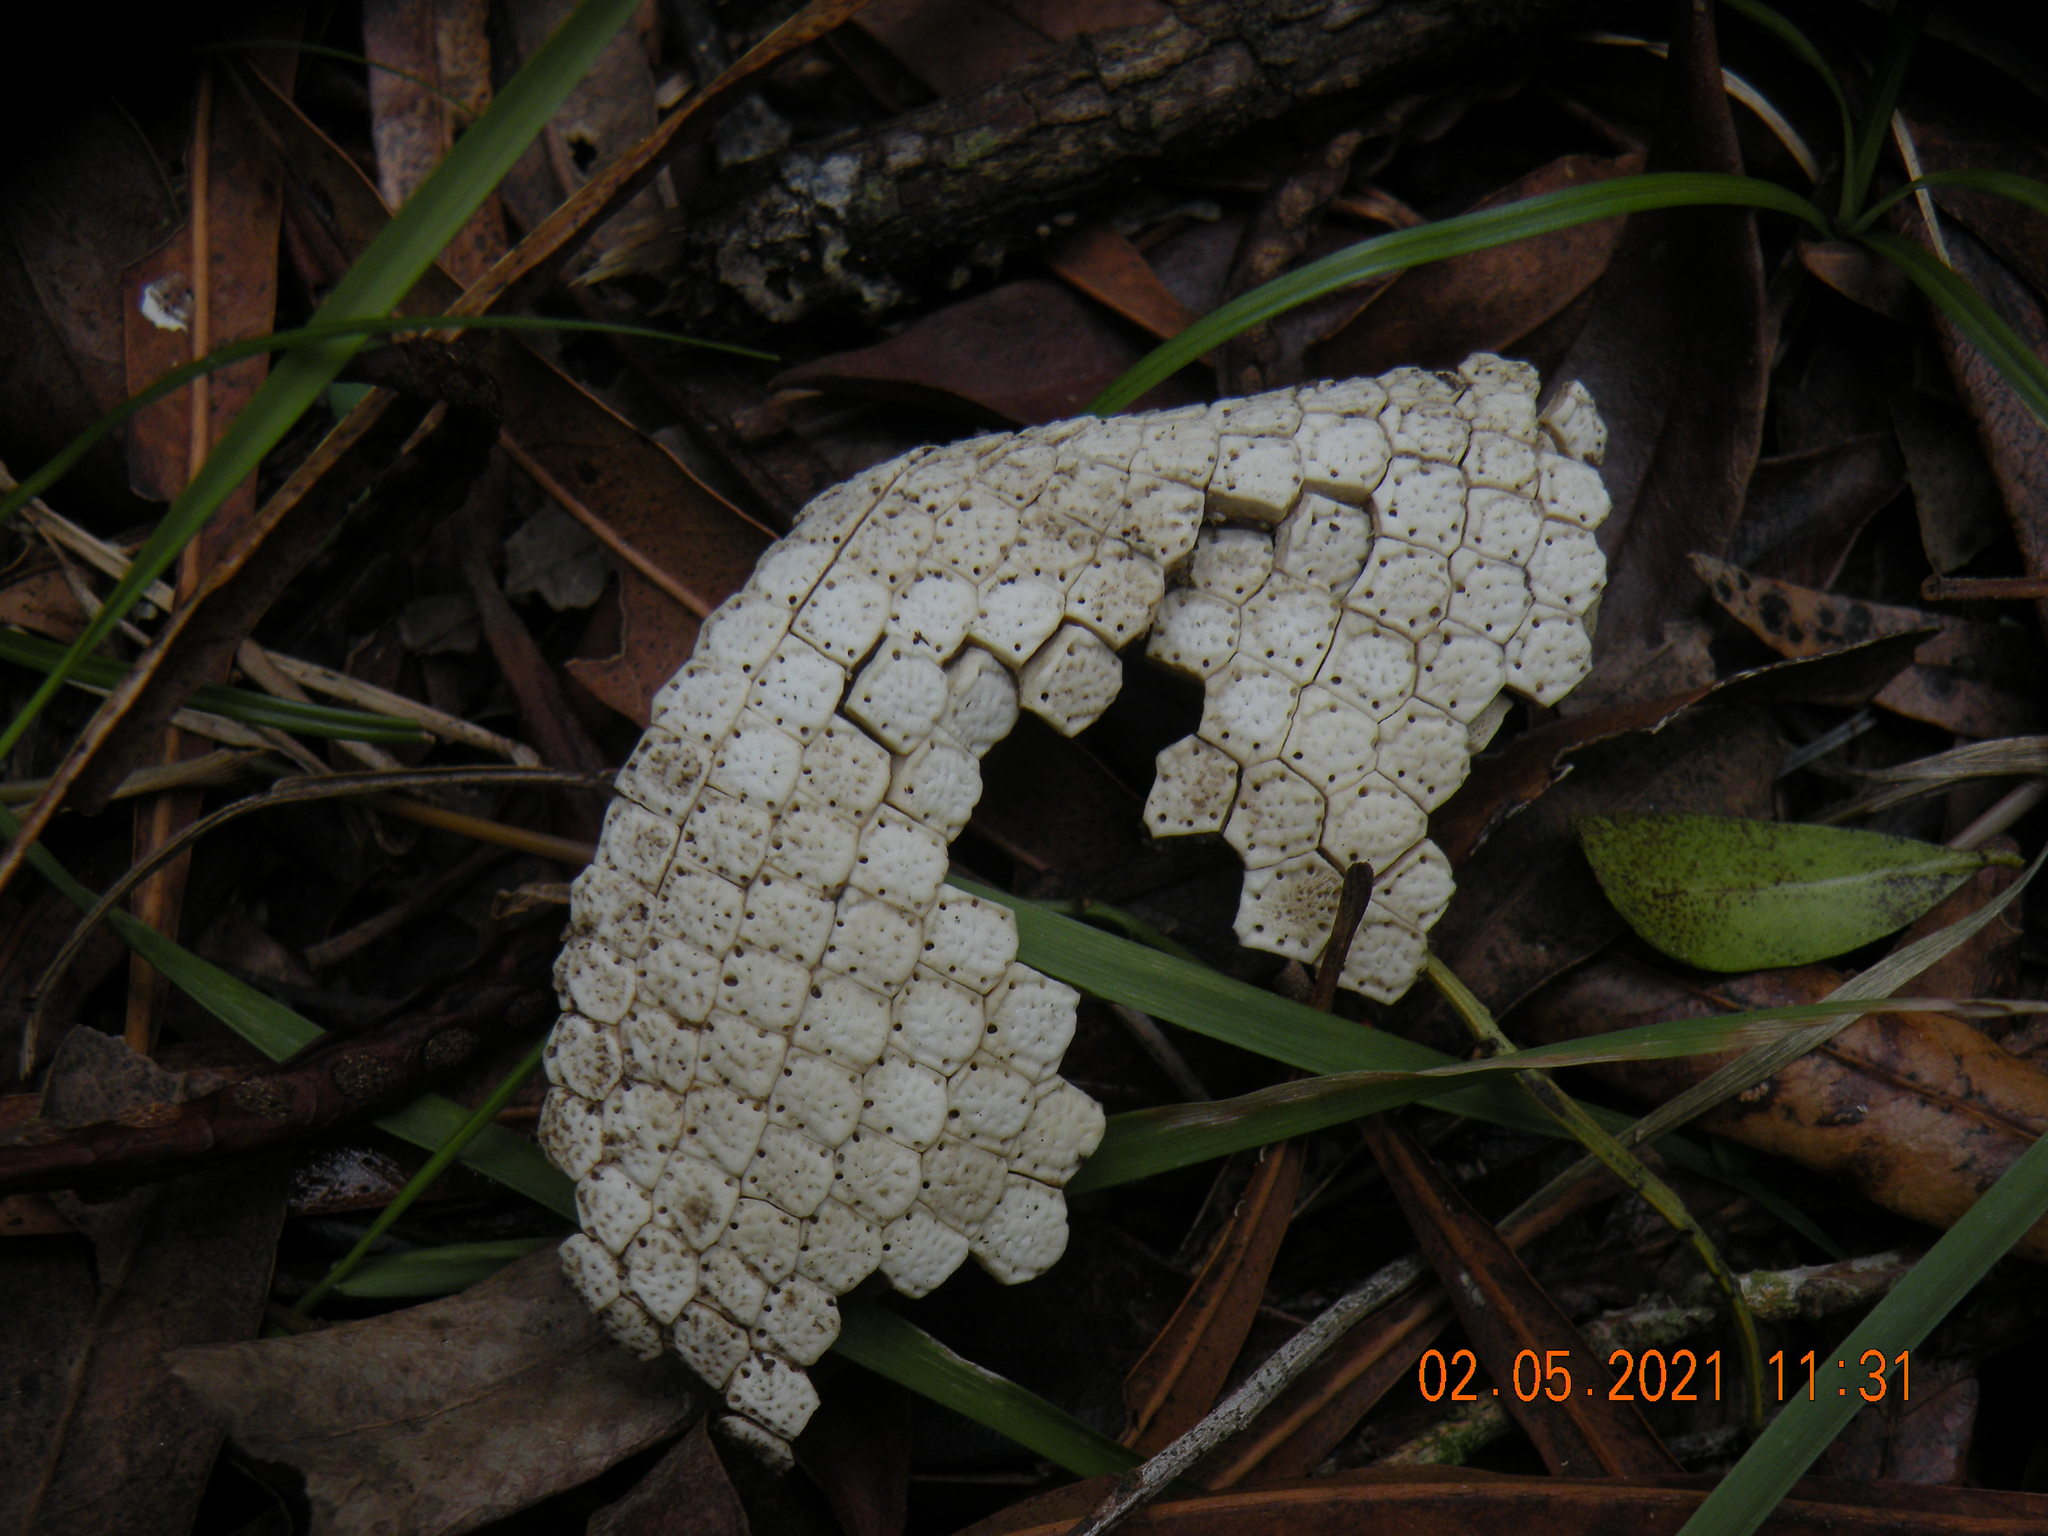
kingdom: Animalia
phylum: Chordata
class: Mammalia
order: Cingulata
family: Dasypodidae
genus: Dasypus
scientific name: Dasypus novemcinctus
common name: Nine-banded armadillo
